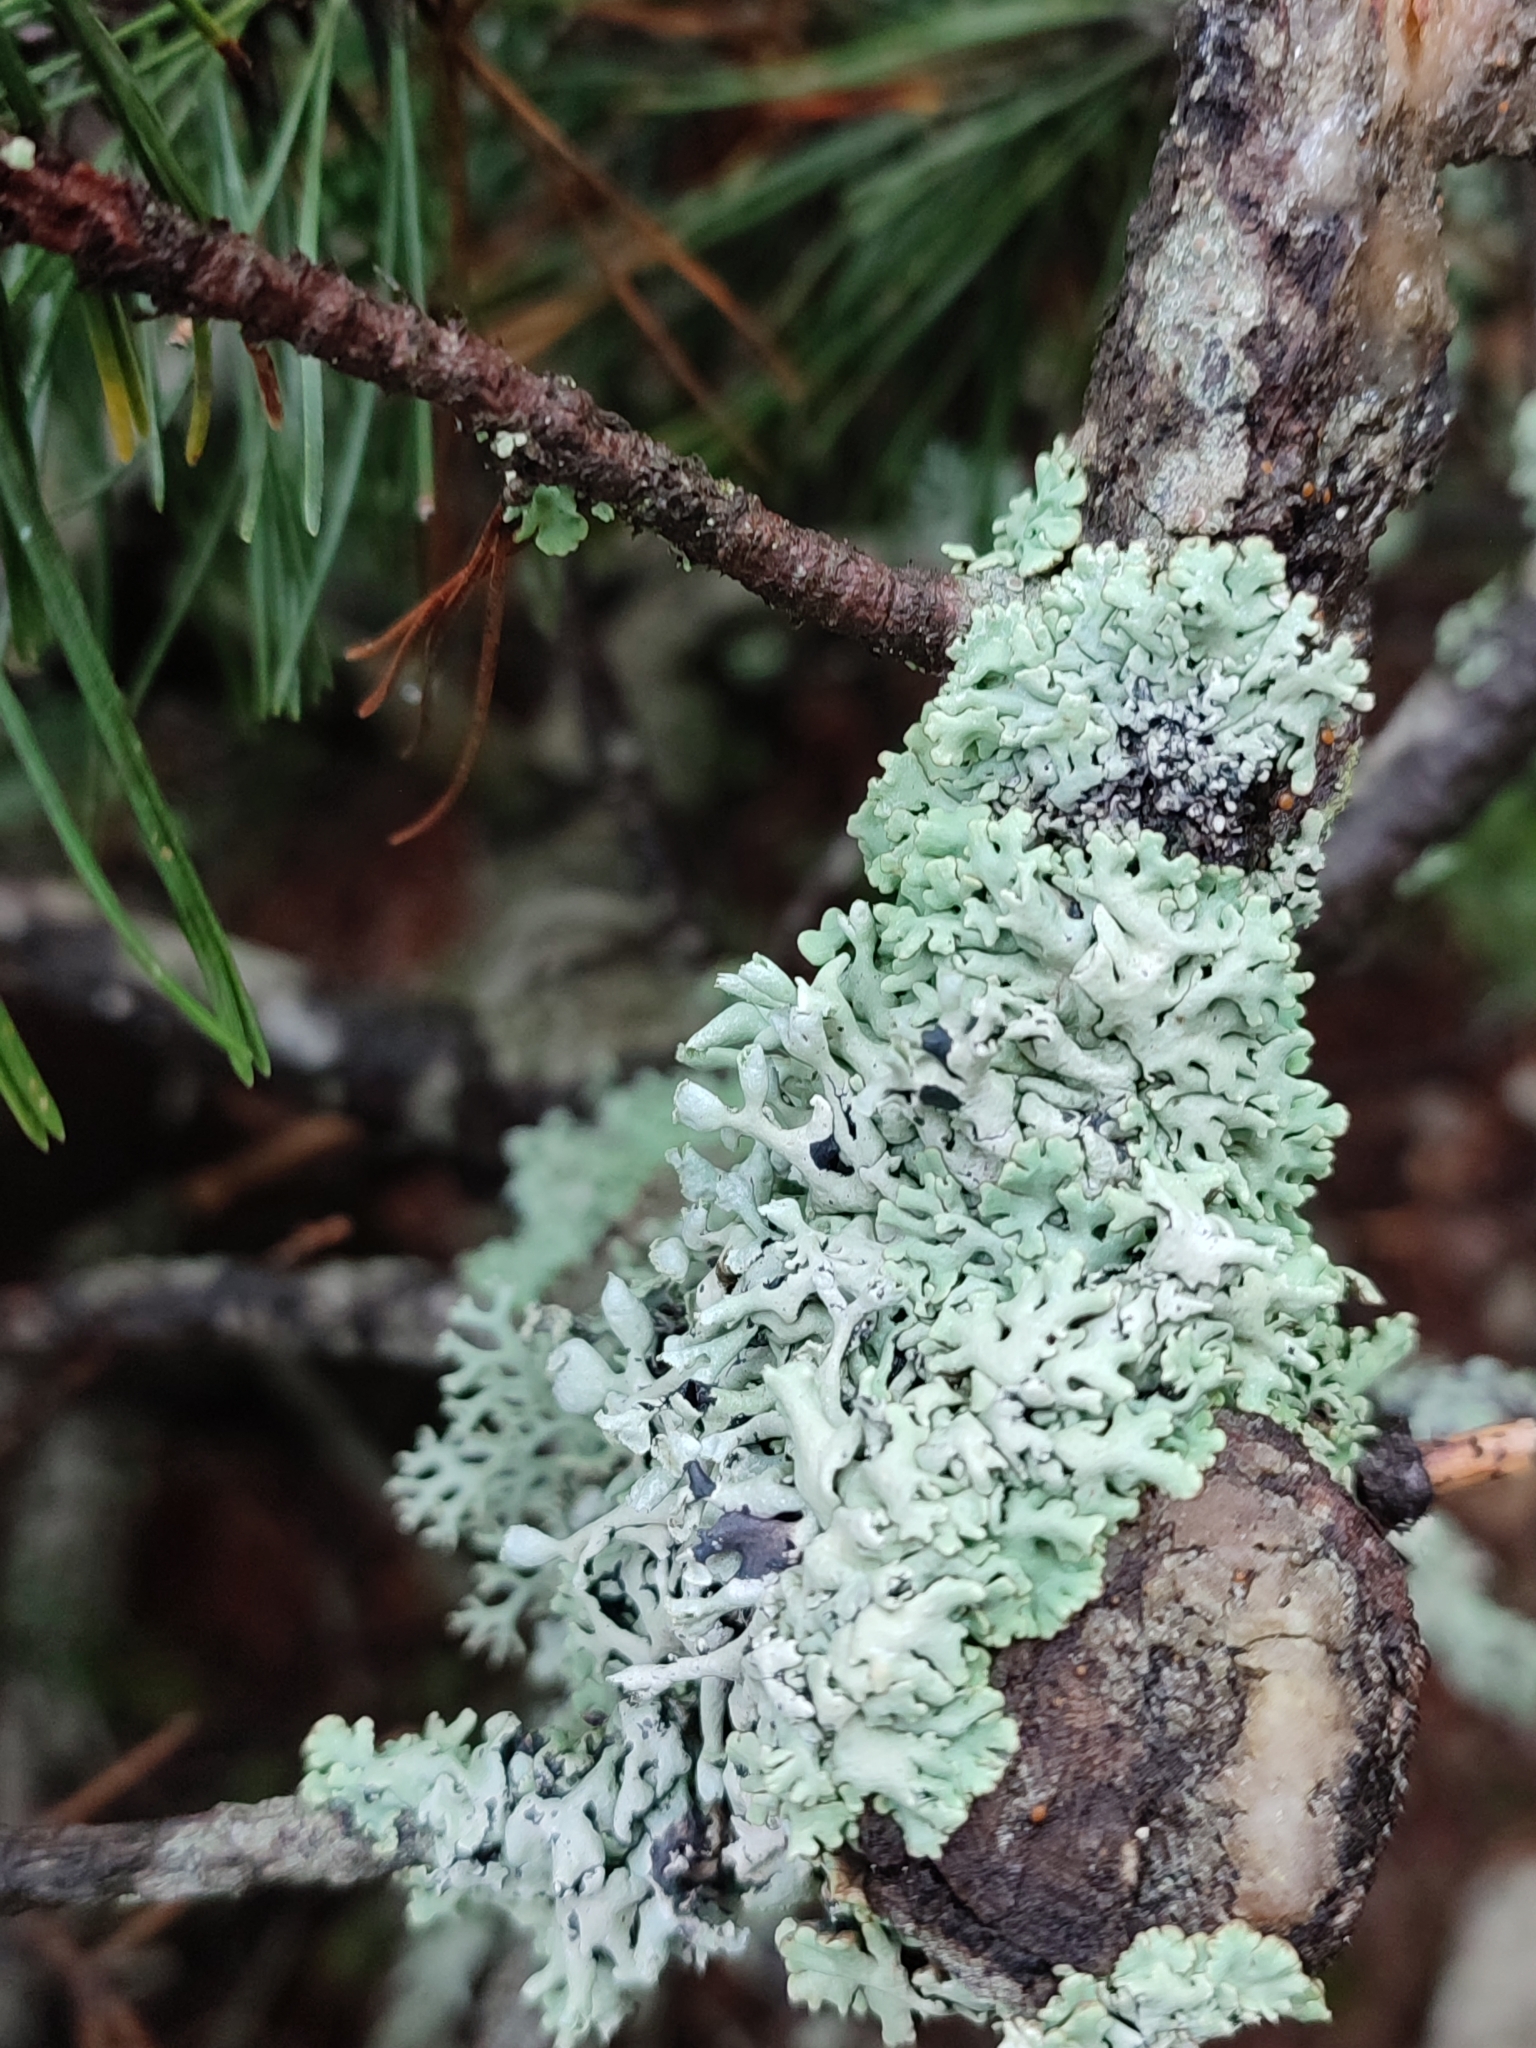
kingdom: Fungi
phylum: Ascomycota
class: Lecanoromycetes
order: Lecanorales
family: Parmeliaceae
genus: Hypogymnia
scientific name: Hypogymnia physodes
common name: Dark crottle
